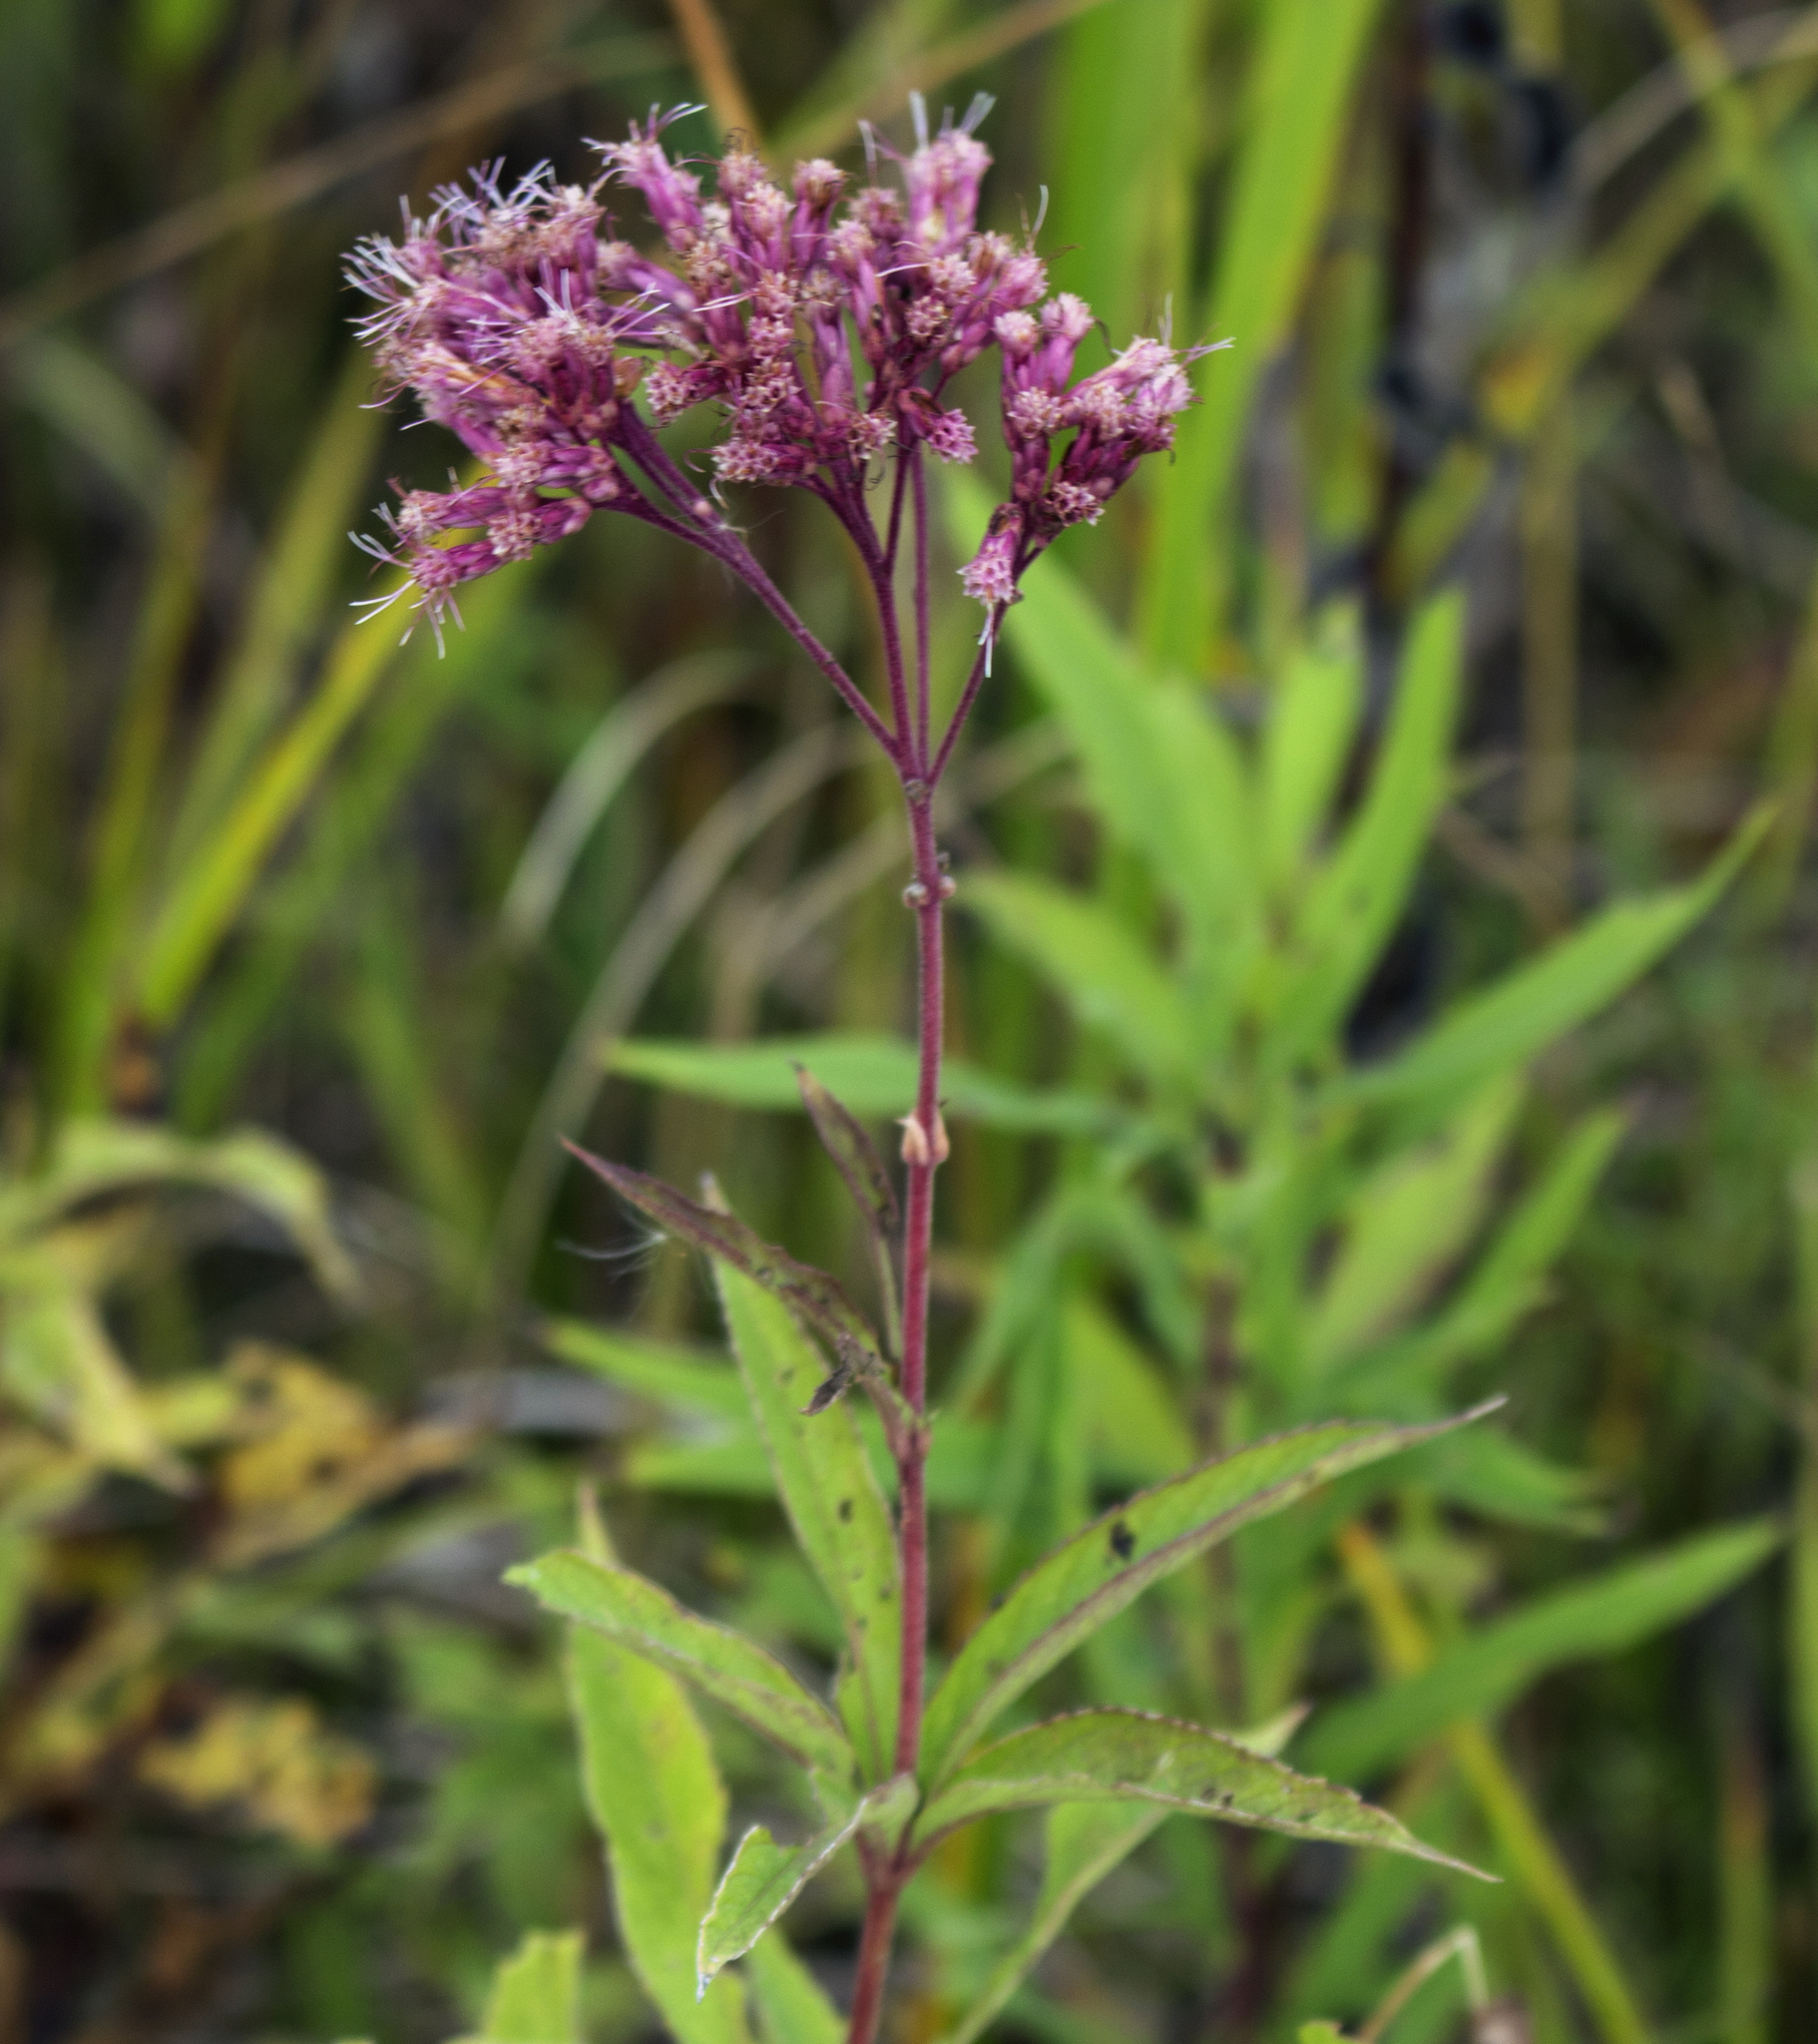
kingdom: Plantae
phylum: Tracheophyta
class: Magnoliopsida
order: Asterales
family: Asteraceae
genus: Eutrochium
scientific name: Eutrochium maculatum
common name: Spotted joe pye weed
